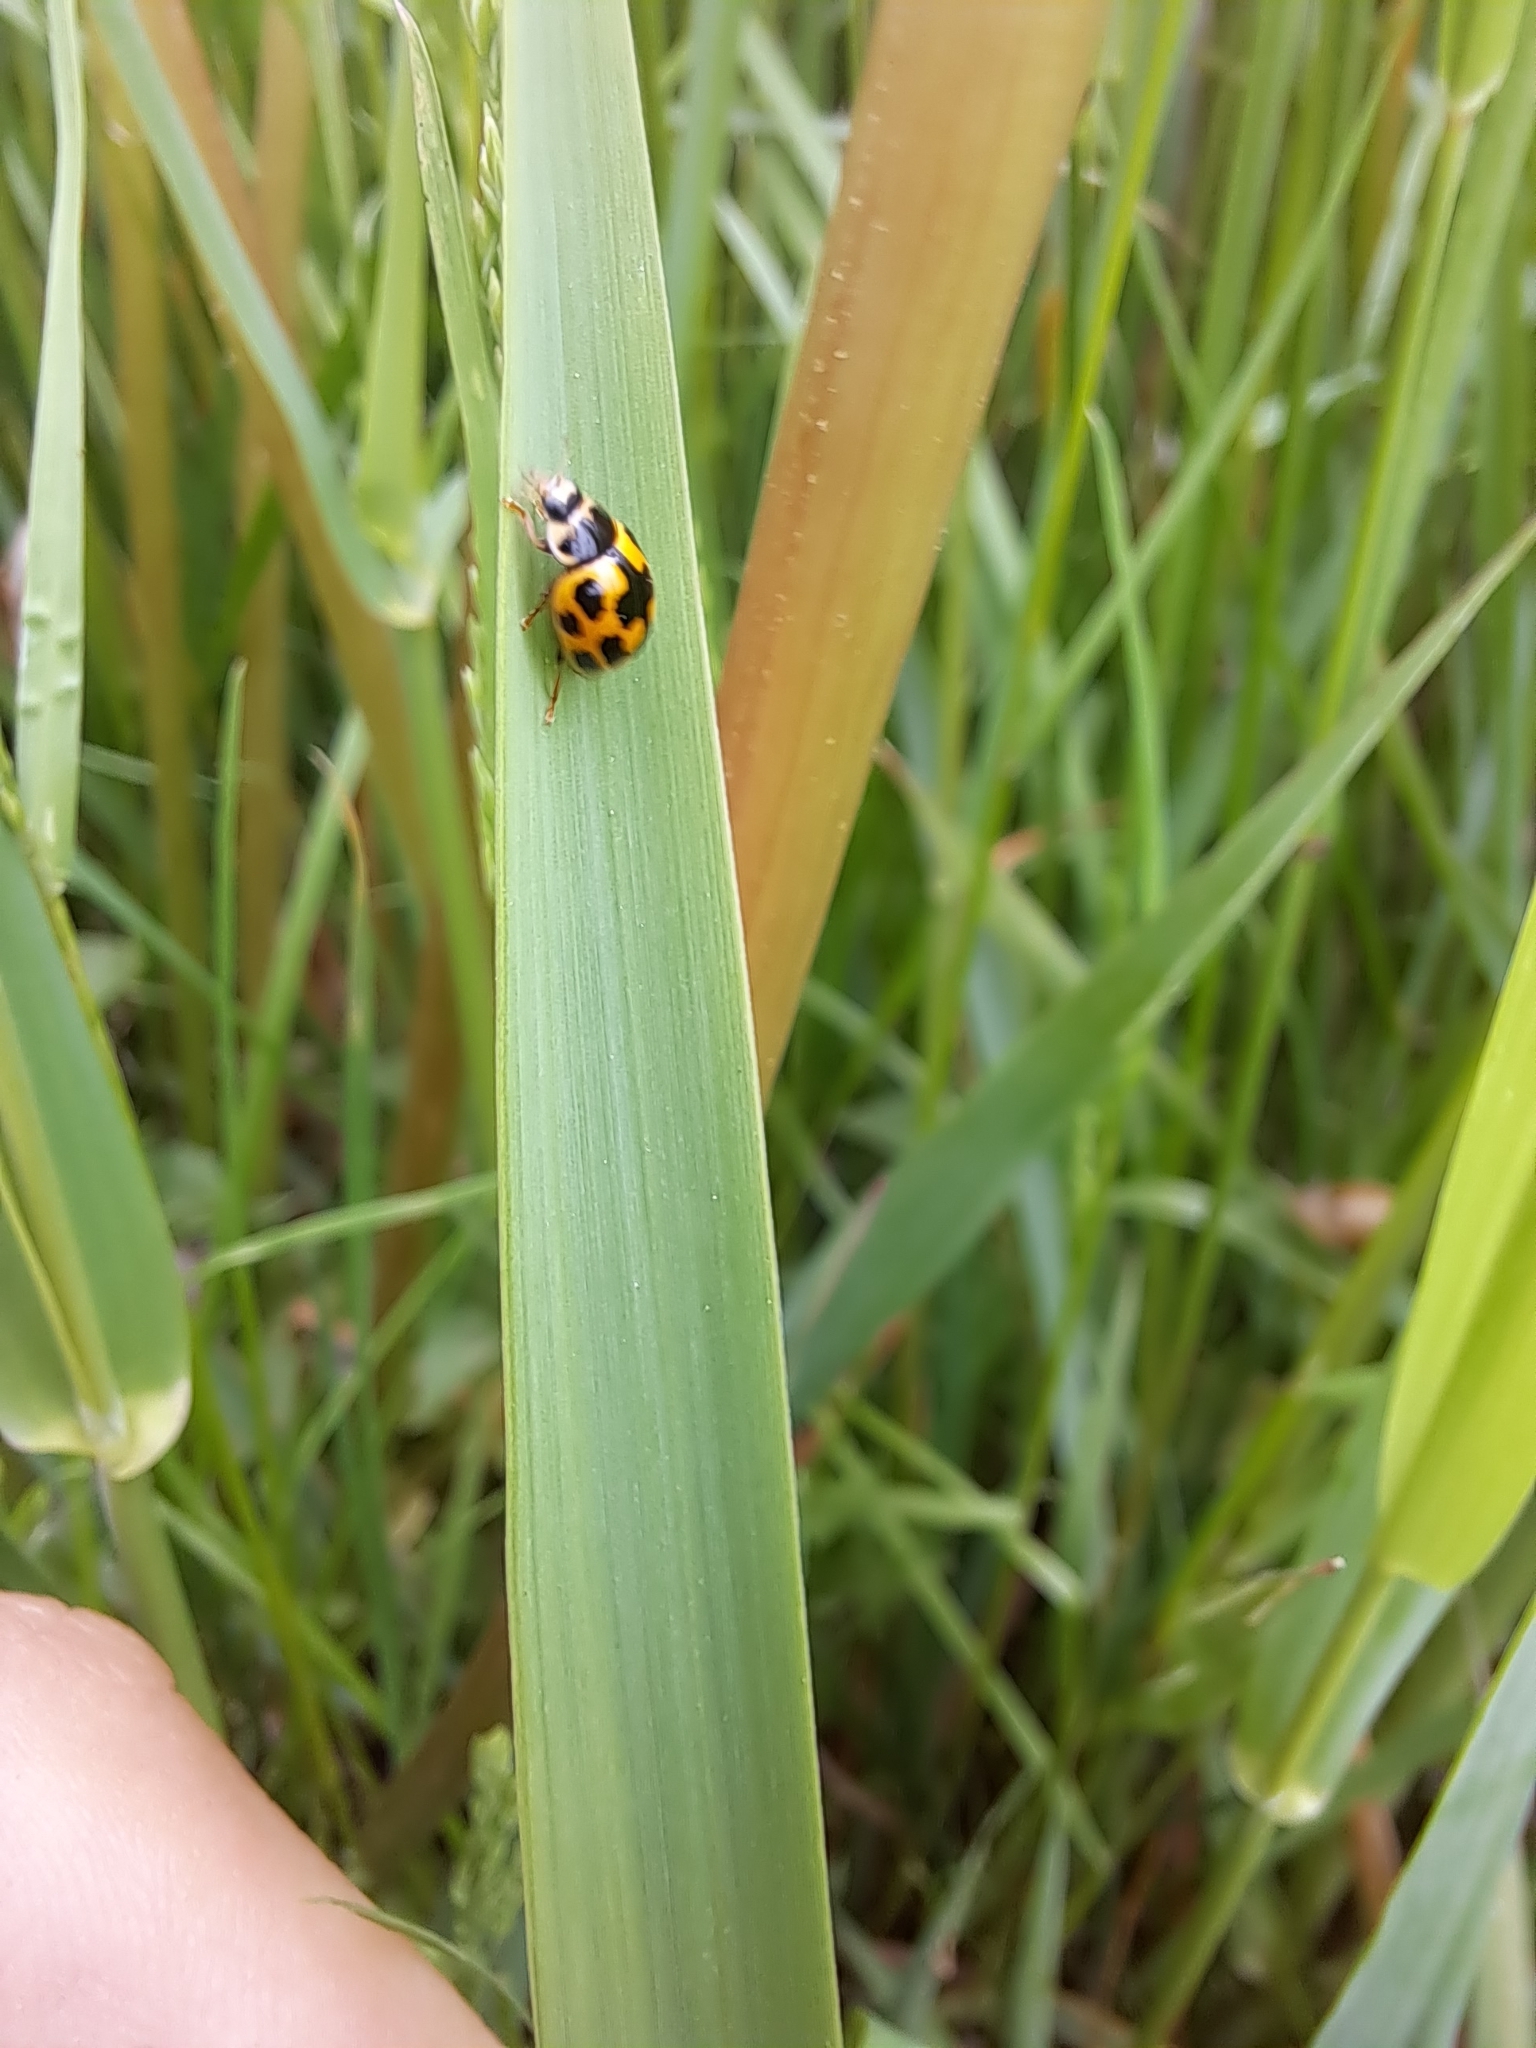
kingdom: Animalia
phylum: Arthropoda
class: Insecta
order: Coleoptera
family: Coccinellidae
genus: Propylaea
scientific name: Propylaea quatuordecimpunctata
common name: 14-spotted ladybird beetle
